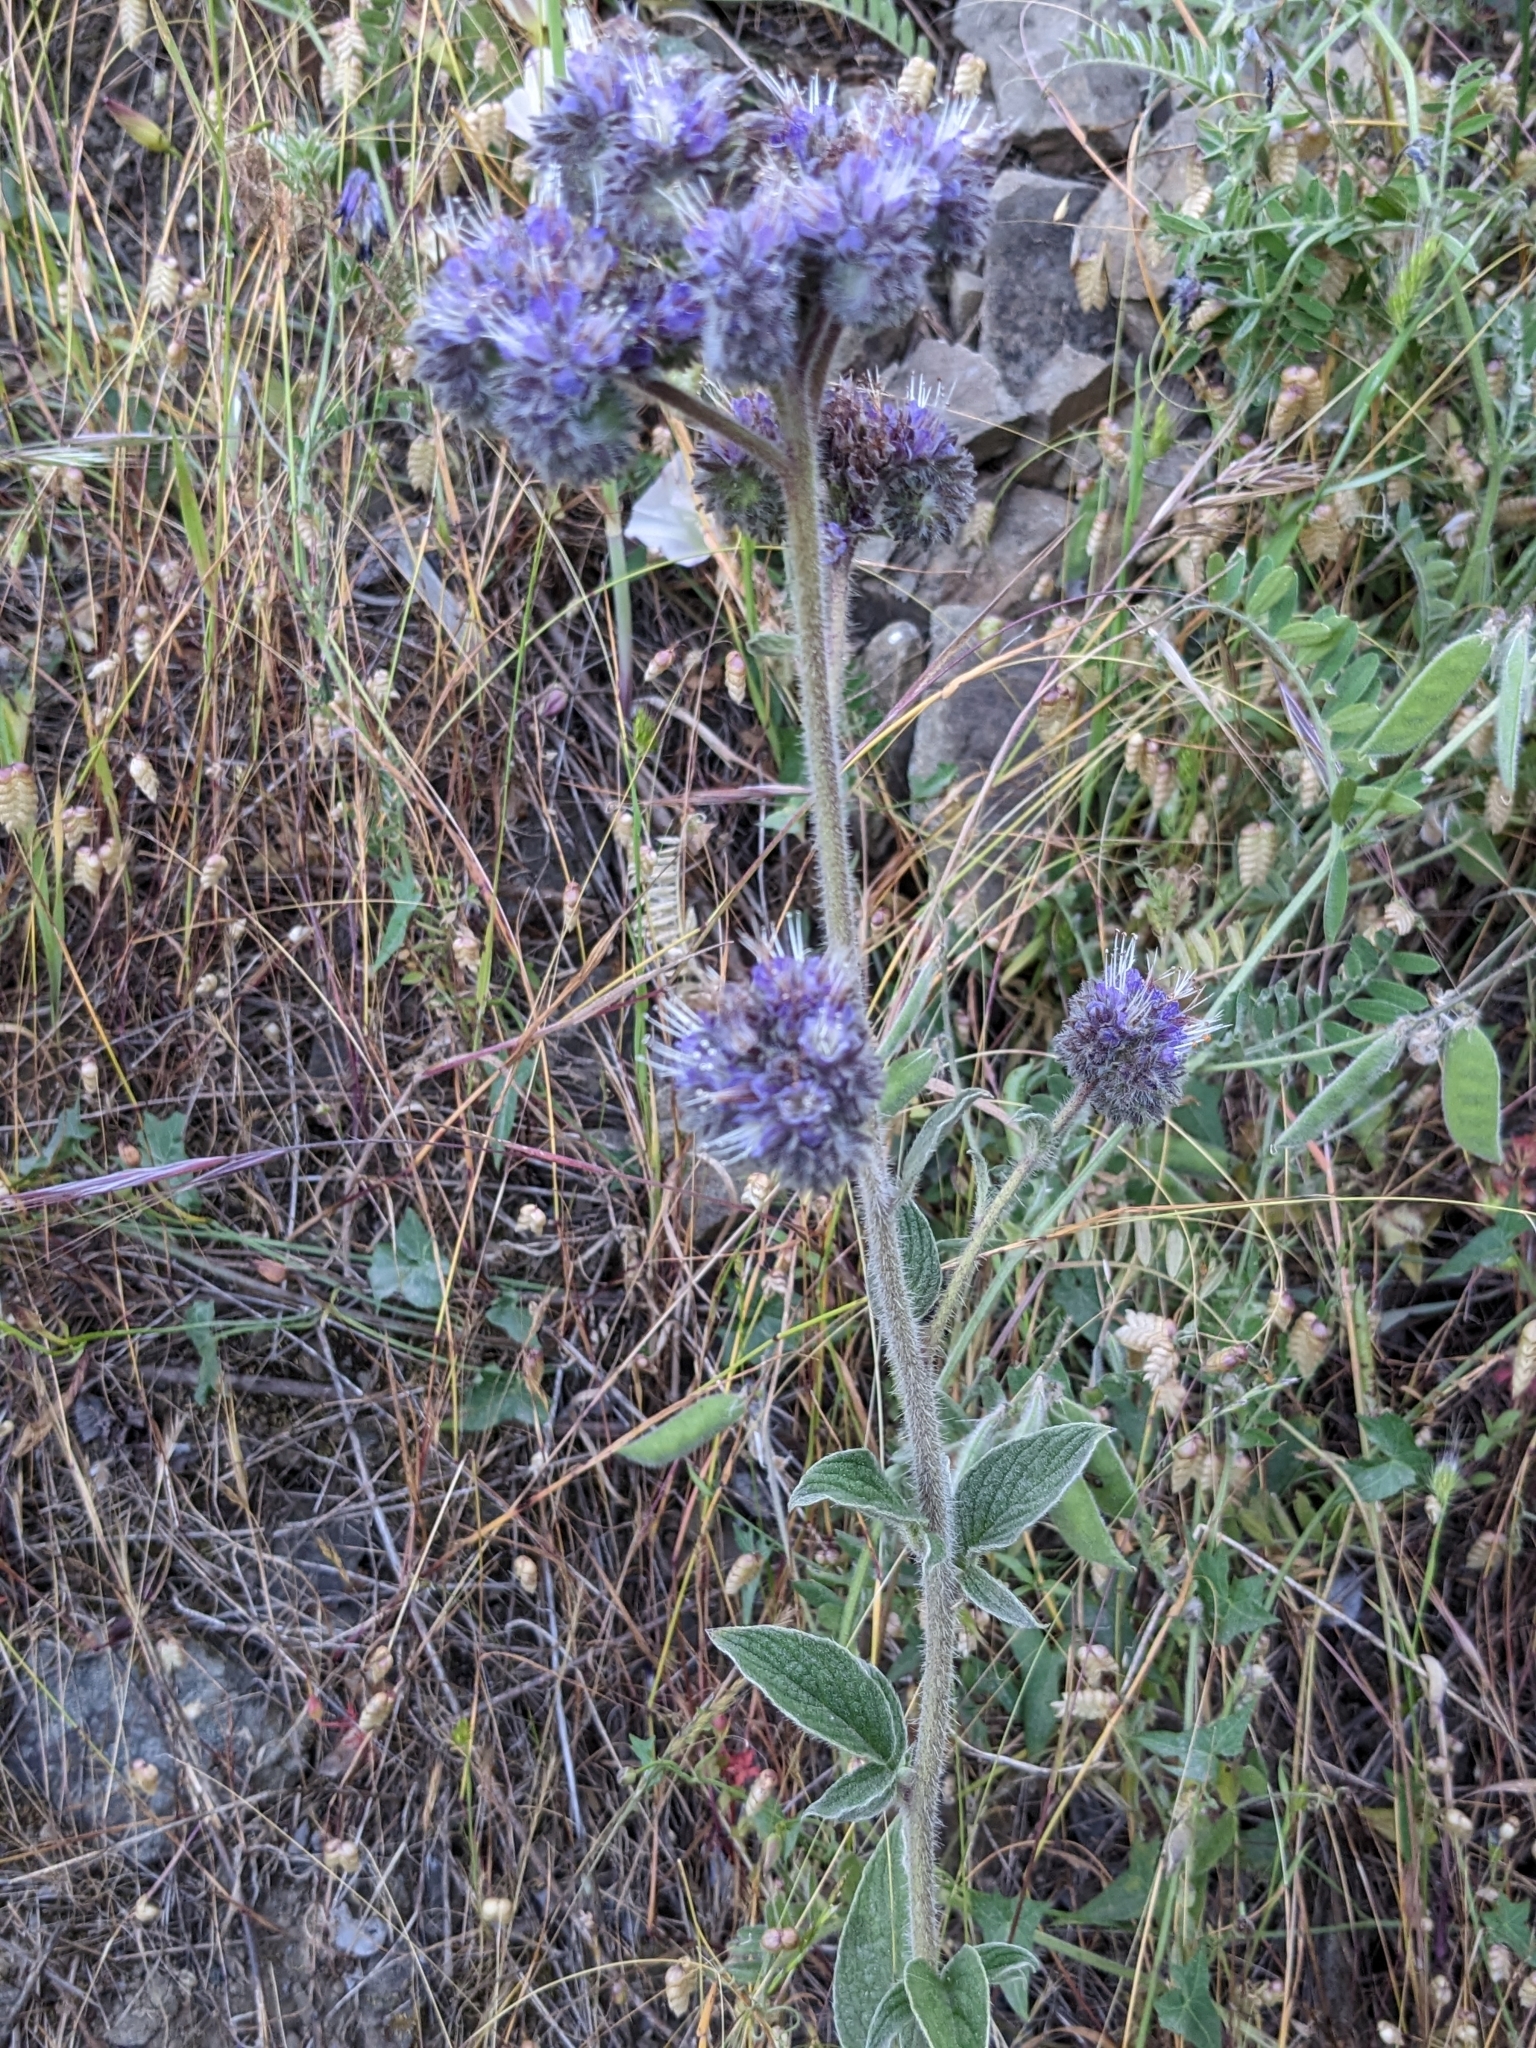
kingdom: Plantae
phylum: Tracheophyta
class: Magnoliopsida
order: Boraginales
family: Hydrophyllaceae
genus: Phacelia
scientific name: Phacelia californica
